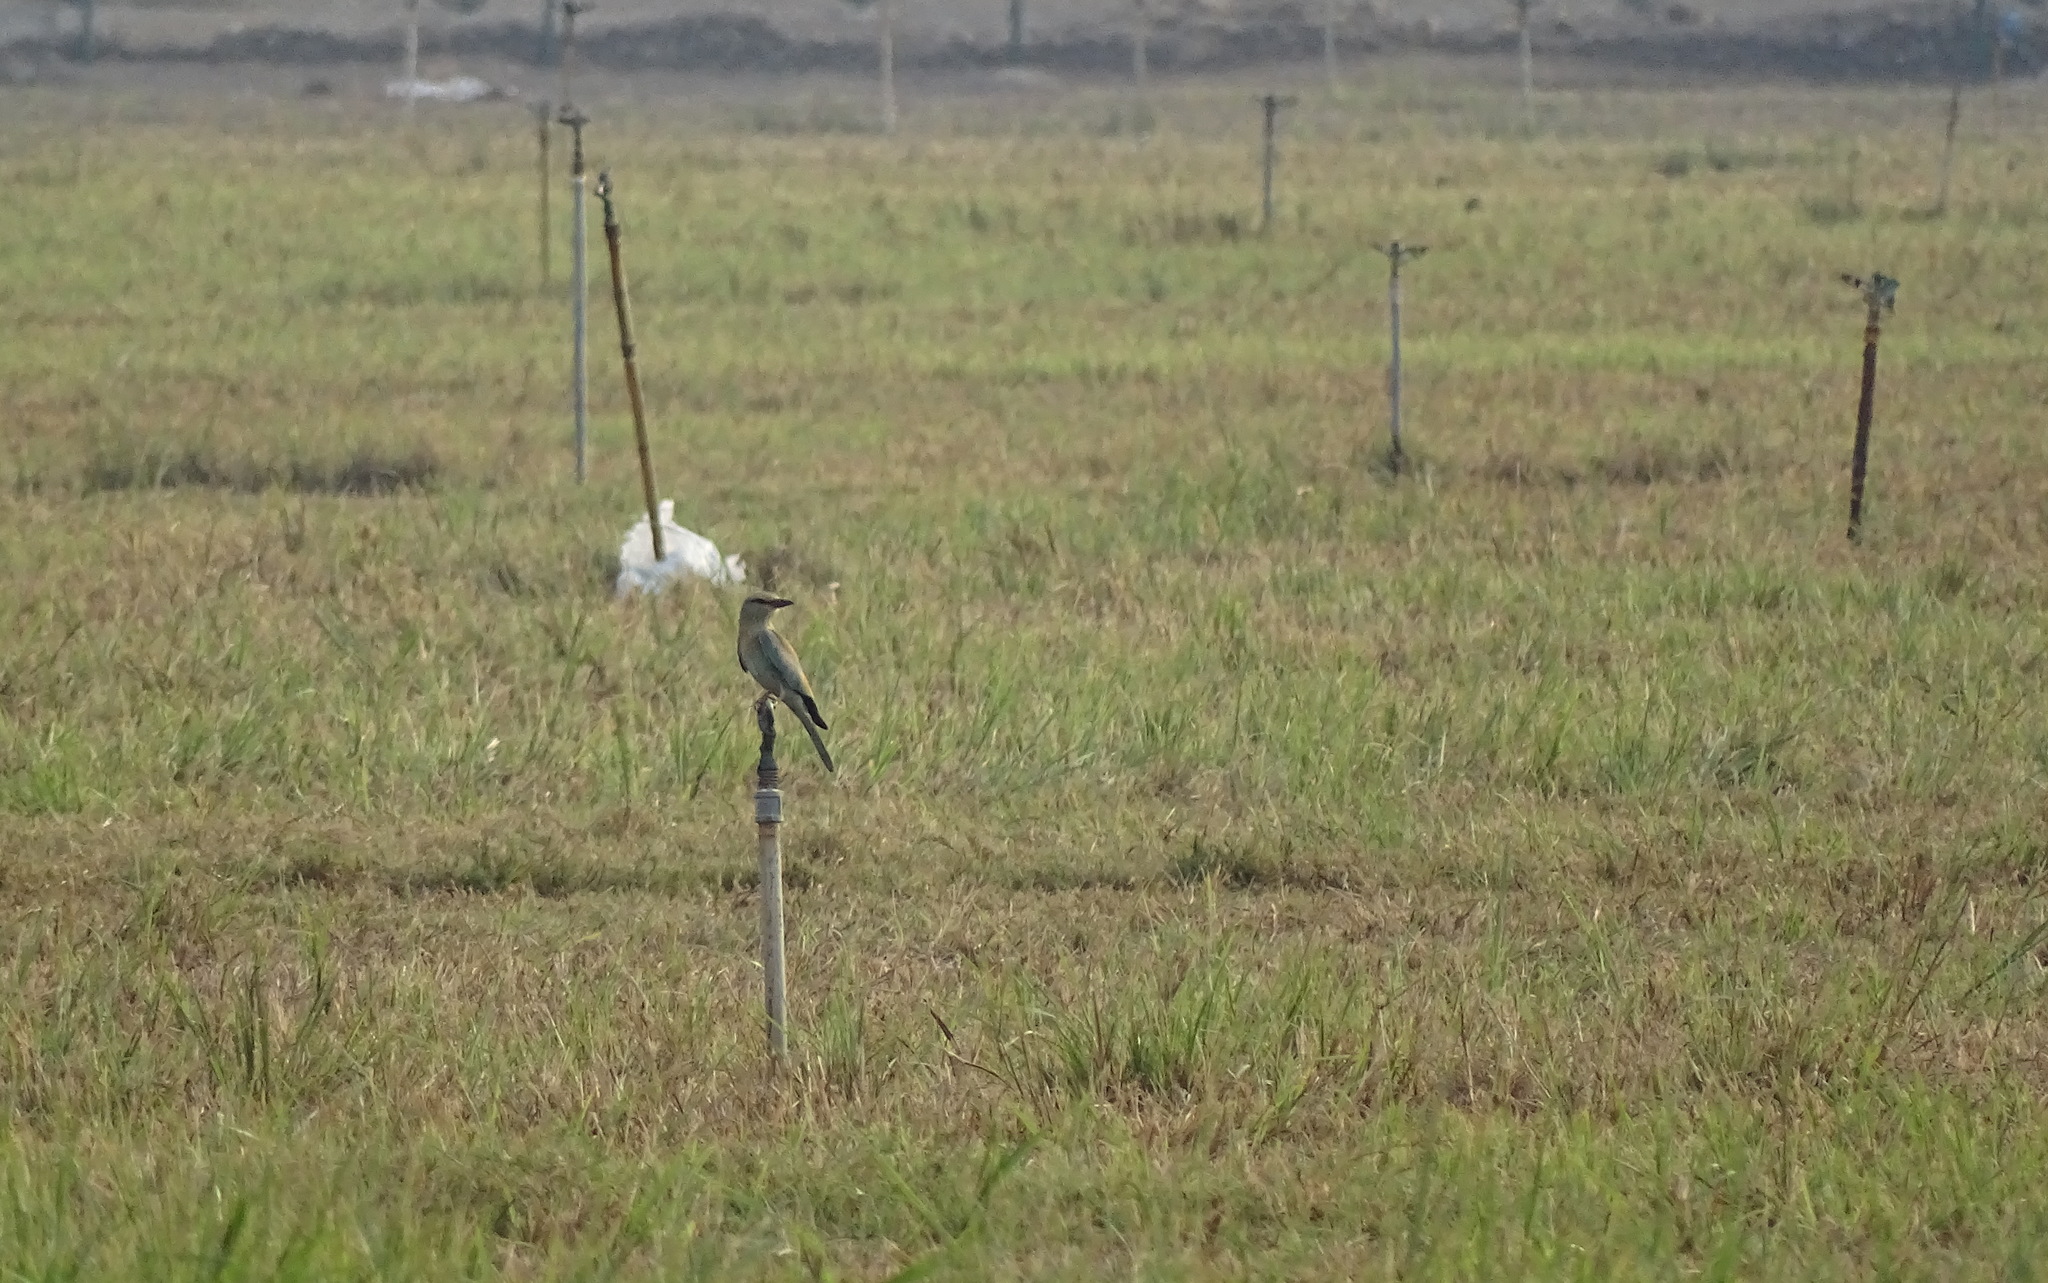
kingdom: Animalia
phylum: Chordata
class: Aves
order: Coraciiformes
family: Coraciidae
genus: Coracias
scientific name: Coracias garrulus
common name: European roller
